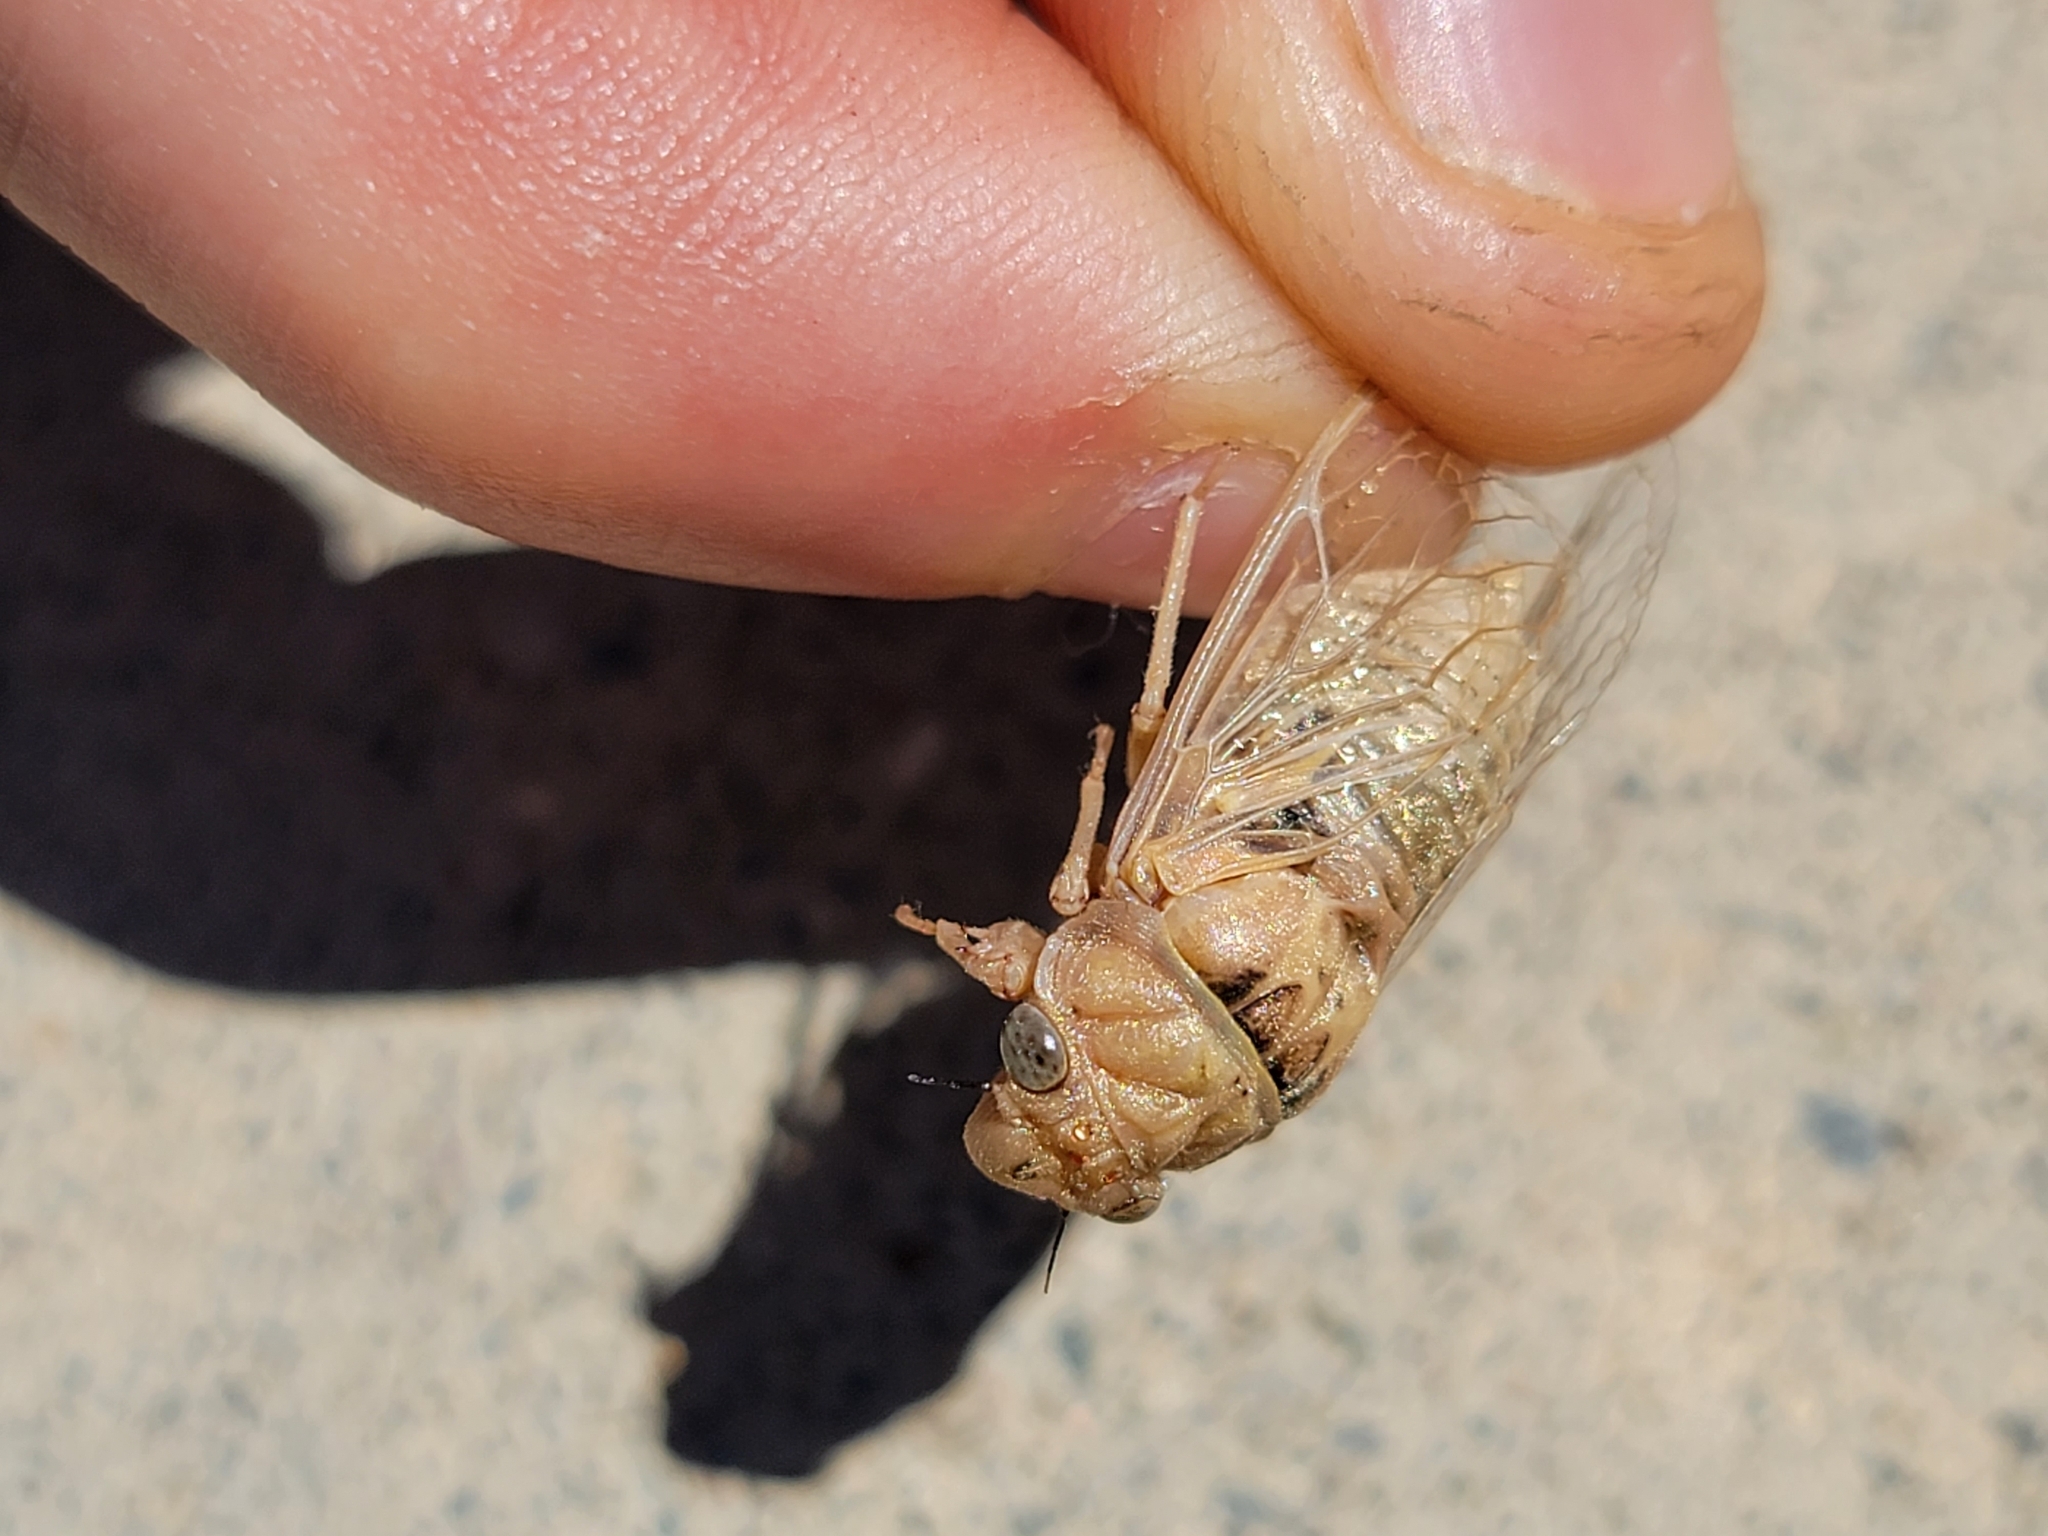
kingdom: Animalia
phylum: Arthropoda
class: Insecta
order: Hemiptera
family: Cicadidae
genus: Tibicinoides
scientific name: Tibicinoides
